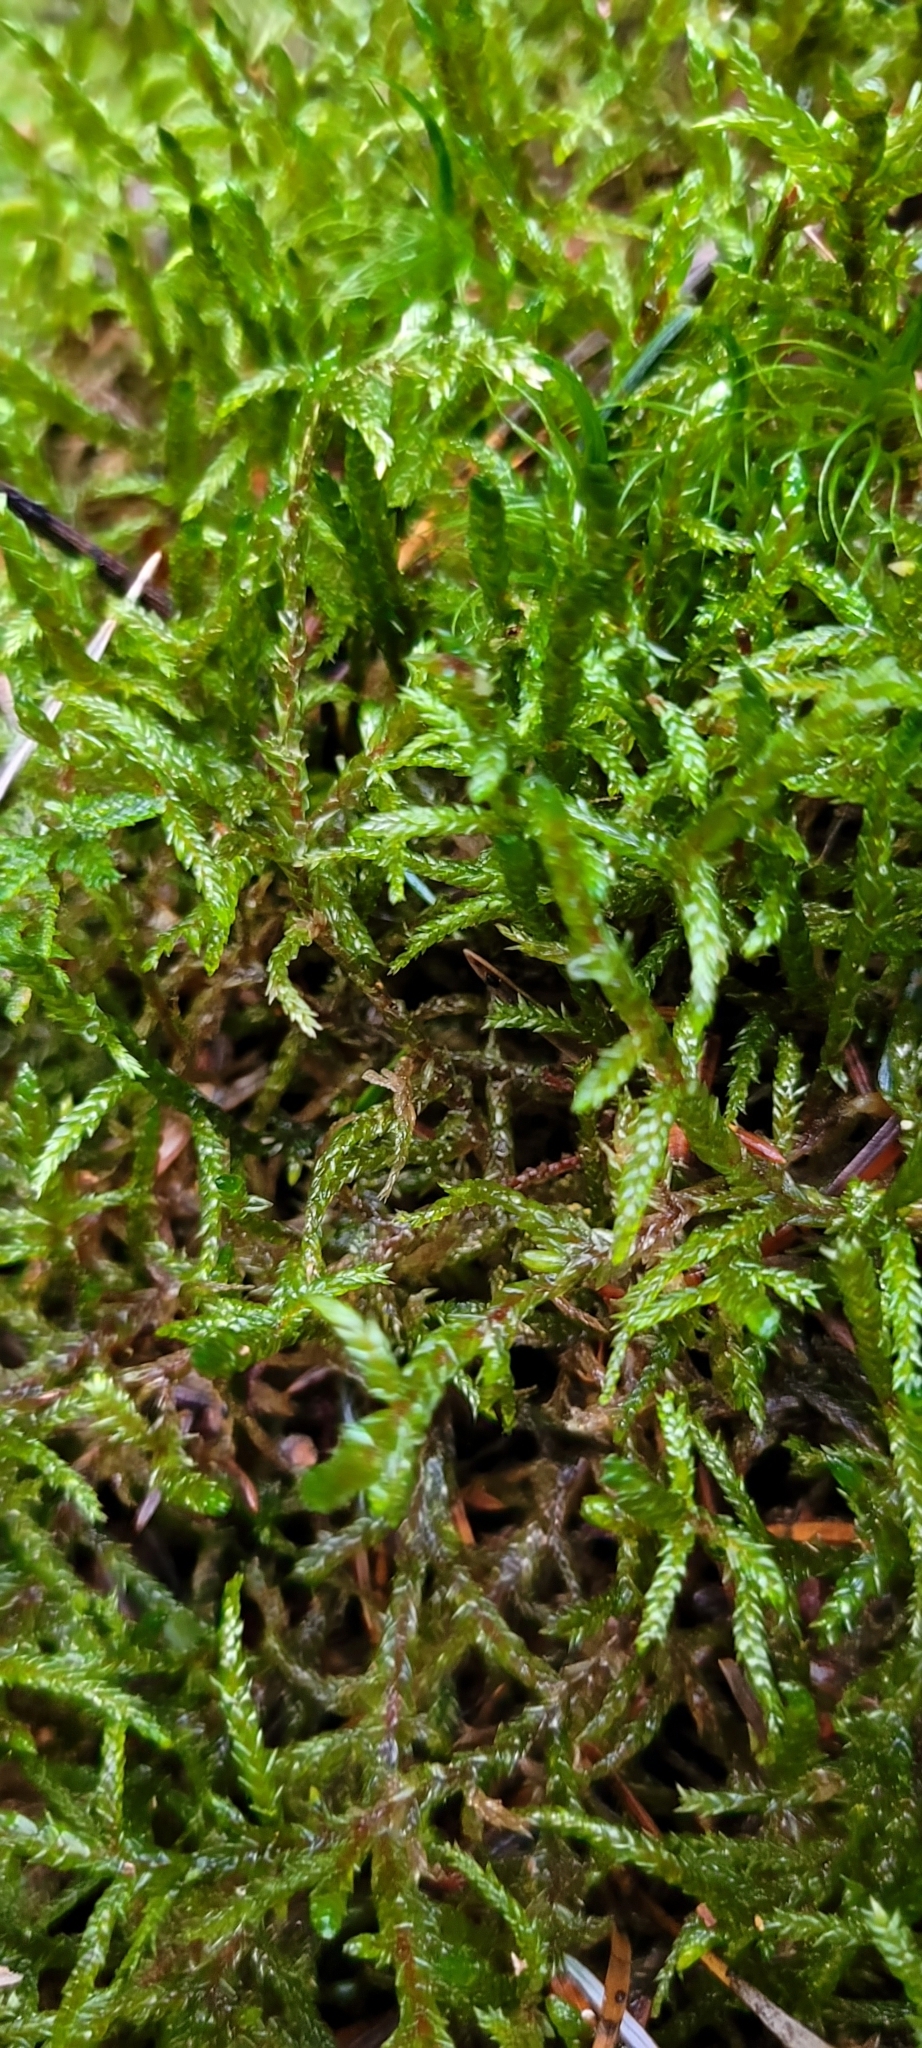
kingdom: Plantae
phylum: Bryophyta
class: Bryopsida
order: Hypnales
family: Hylocomiaceae
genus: Pleurozium
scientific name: Pleurozium schreberi
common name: Red-stemmed feather moss
